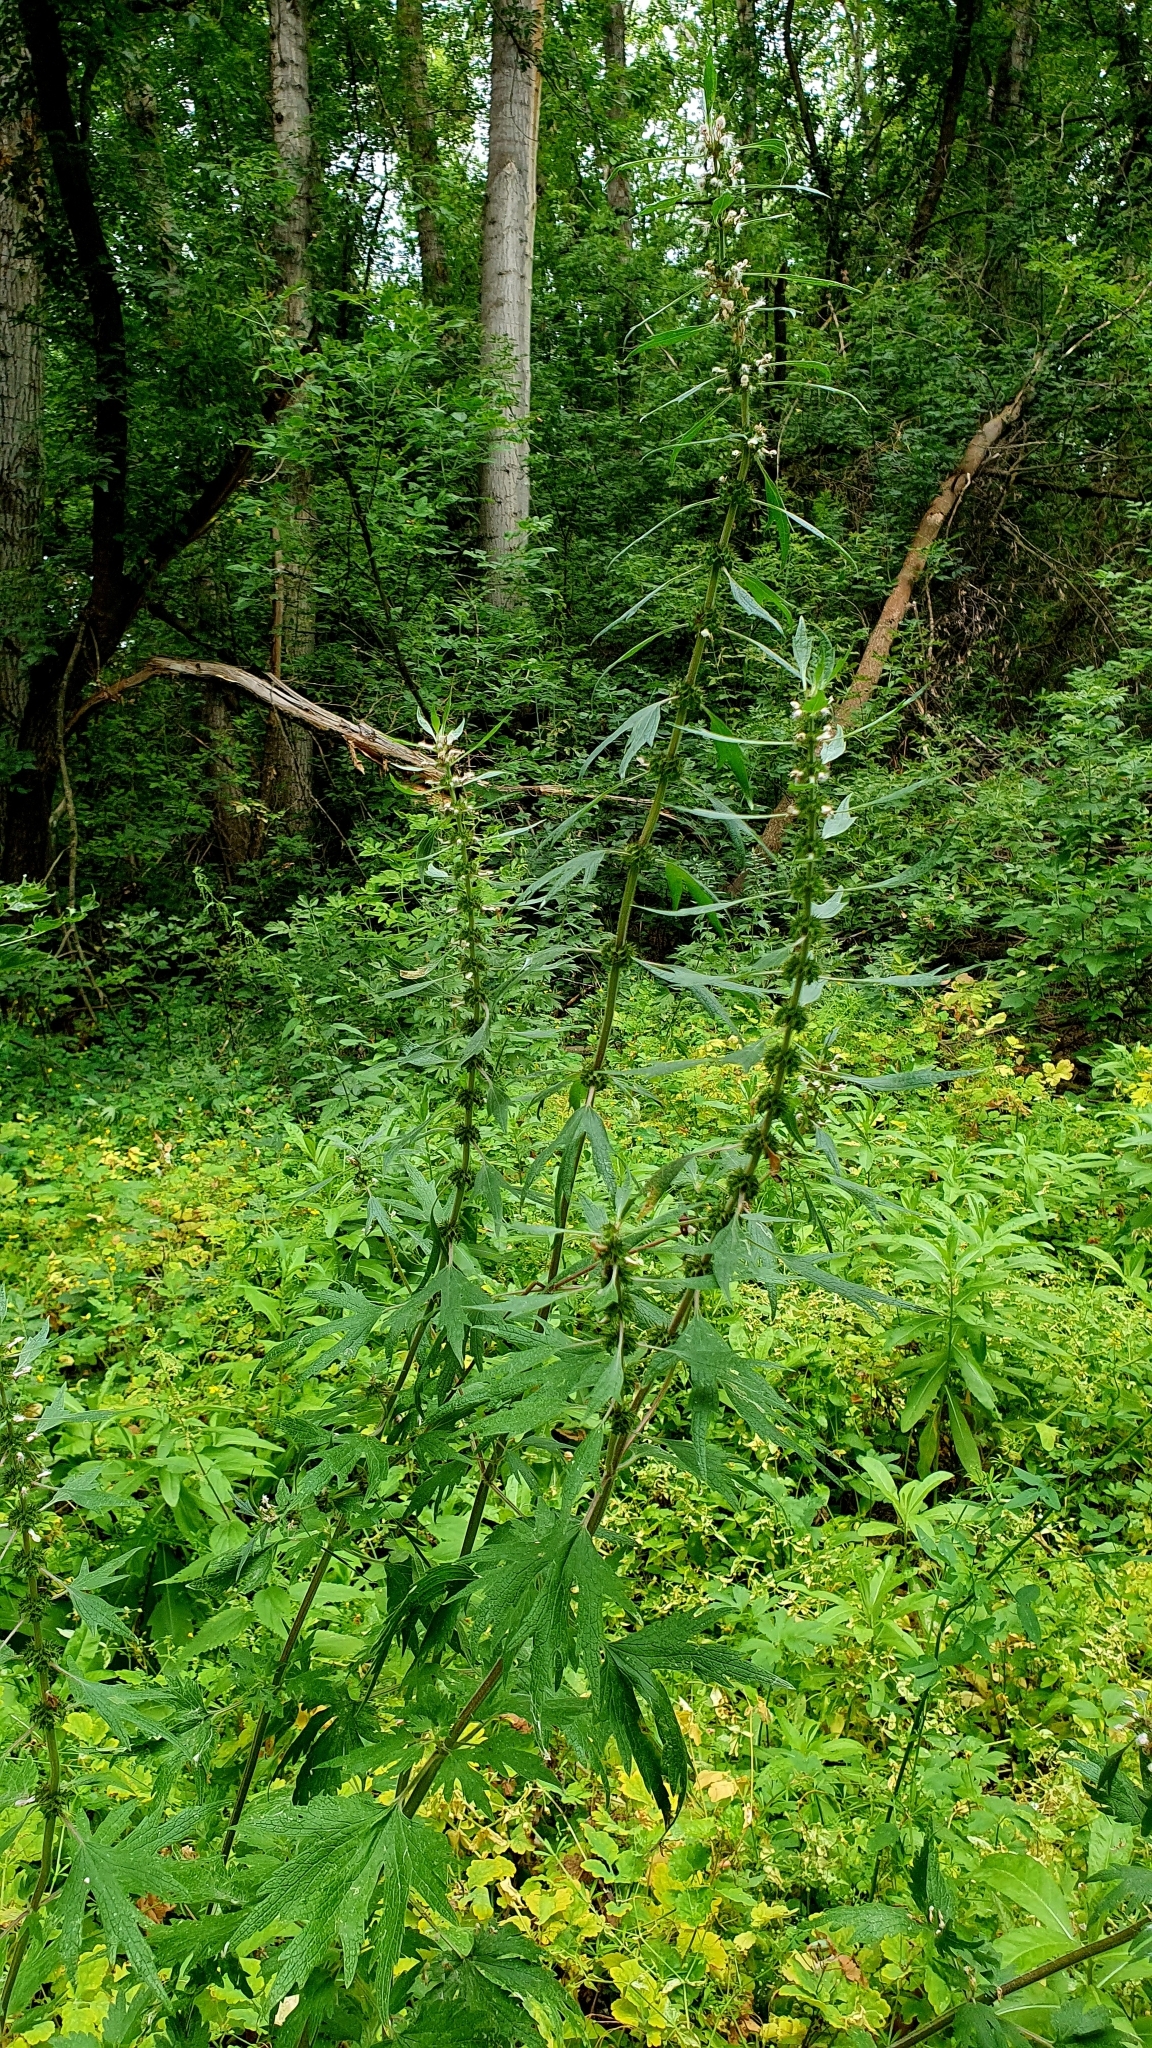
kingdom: Plantae
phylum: Tracheophyta
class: Magnoliopsida
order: Lamiales
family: Lamiaceae
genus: Leonurus
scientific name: Leonurus quinquelobatus
